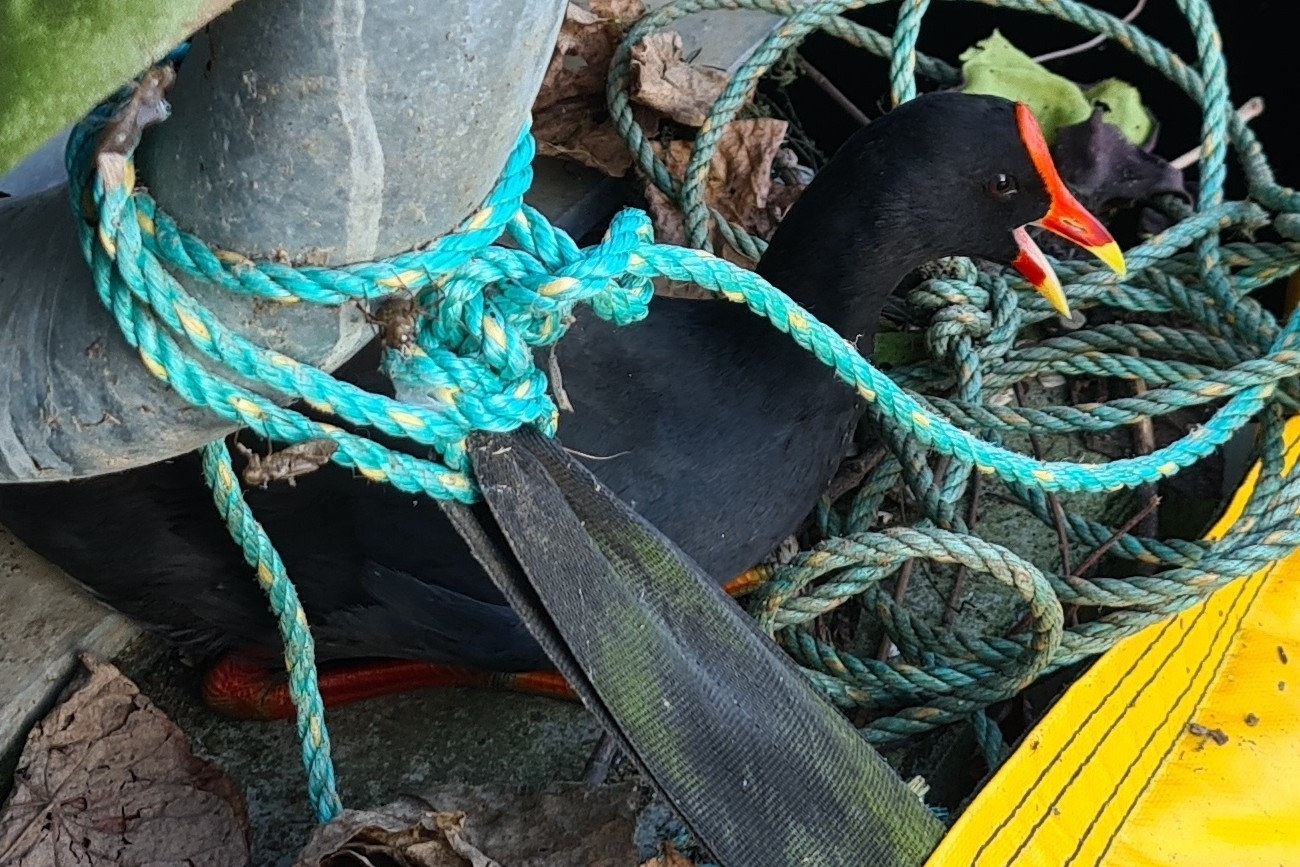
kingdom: Animalia
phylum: Chordata
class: Aves
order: Gruiformes
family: Rallidae
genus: Gallinula
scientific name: Gallinula tenebrosa
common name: Dusky moorhen
